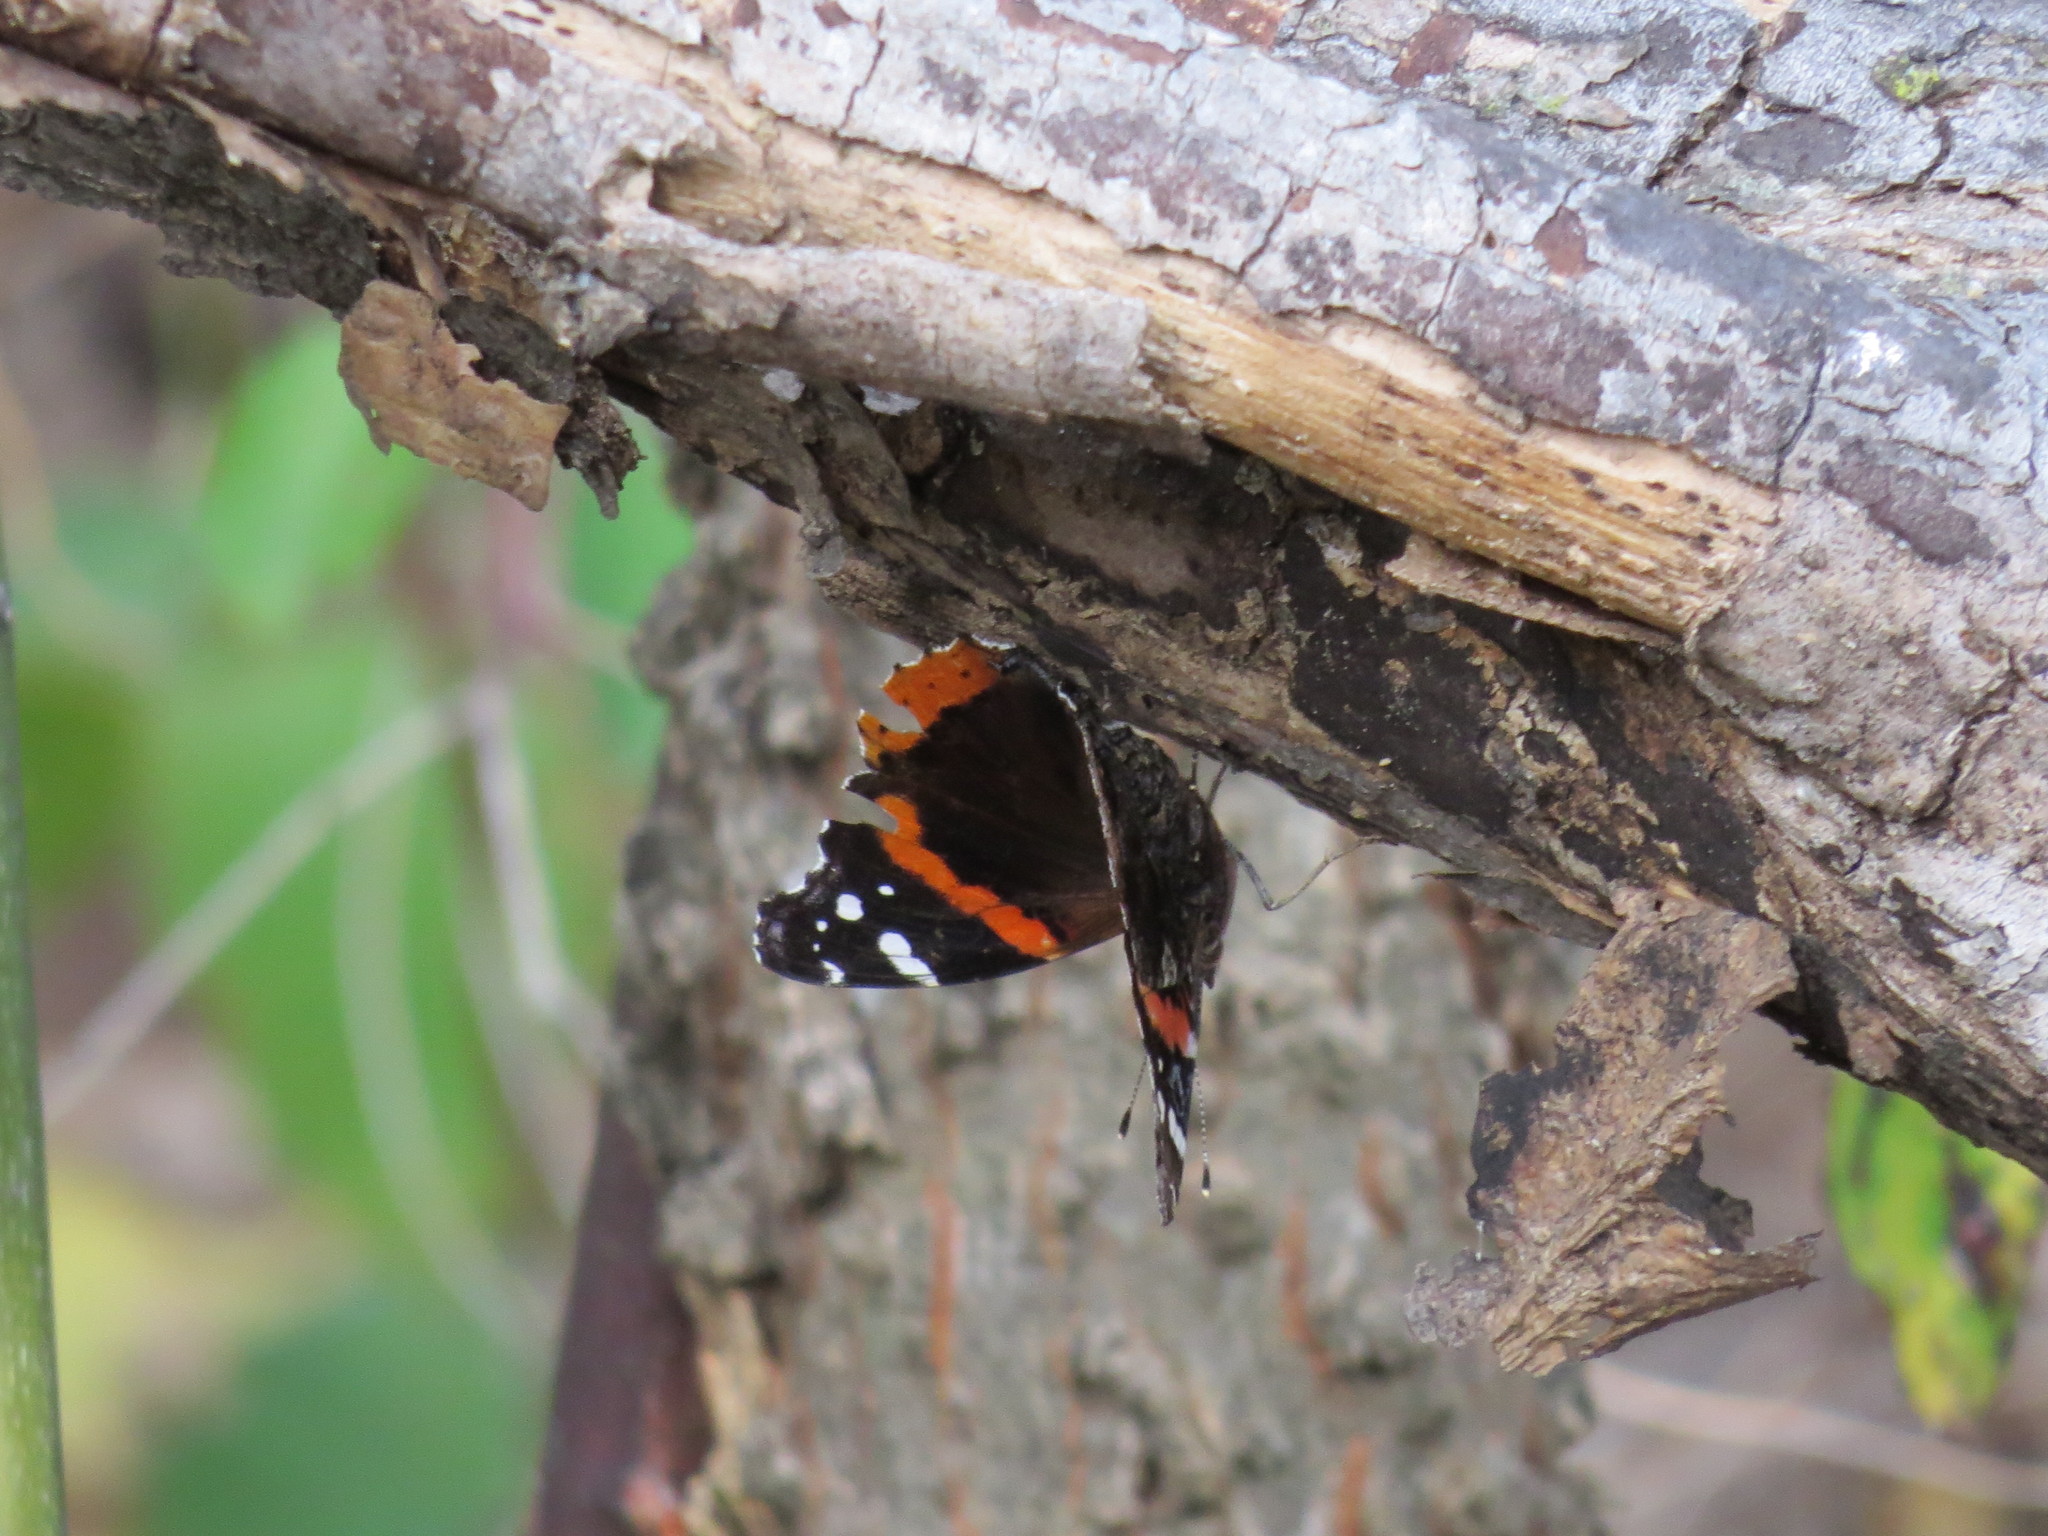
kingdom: Animalia
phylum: Arthropoda
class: Insecta
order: Lepidoptera
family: Nymphalidae
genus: Vanessa
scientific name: Vanessa atalanta
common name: Red admiral
